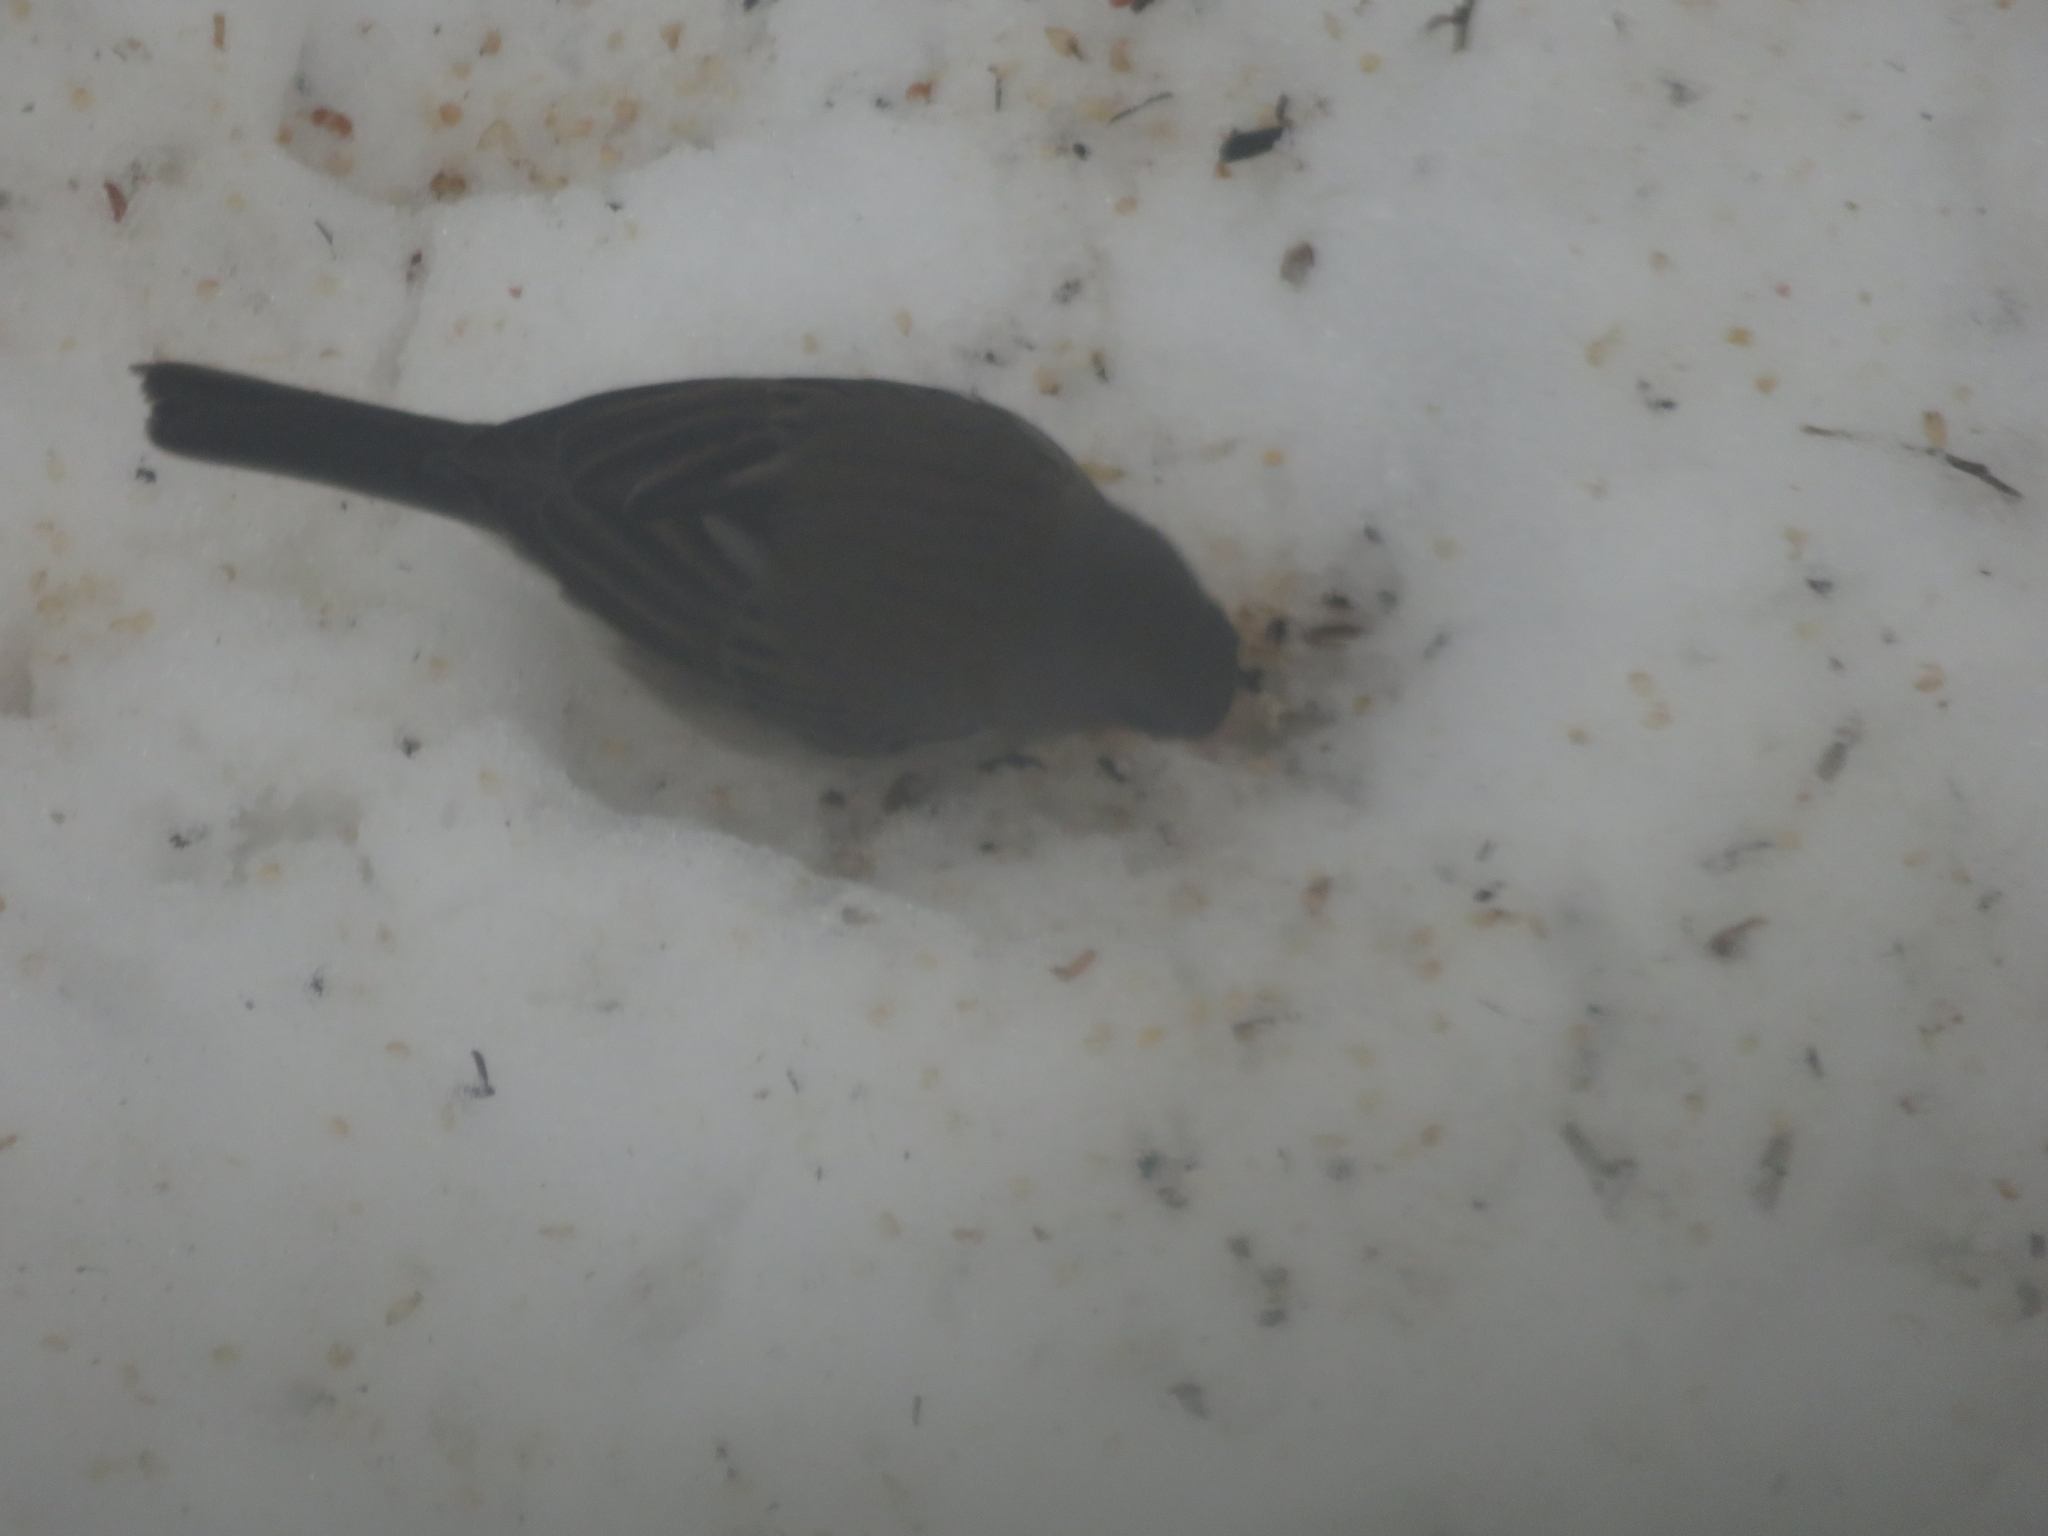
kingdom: Animalia
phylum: Chordata
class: Aves
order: Passeriformes
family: Passerellidae
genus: Junco
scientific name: Junco hyemalis
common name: Dark-eyed junco
